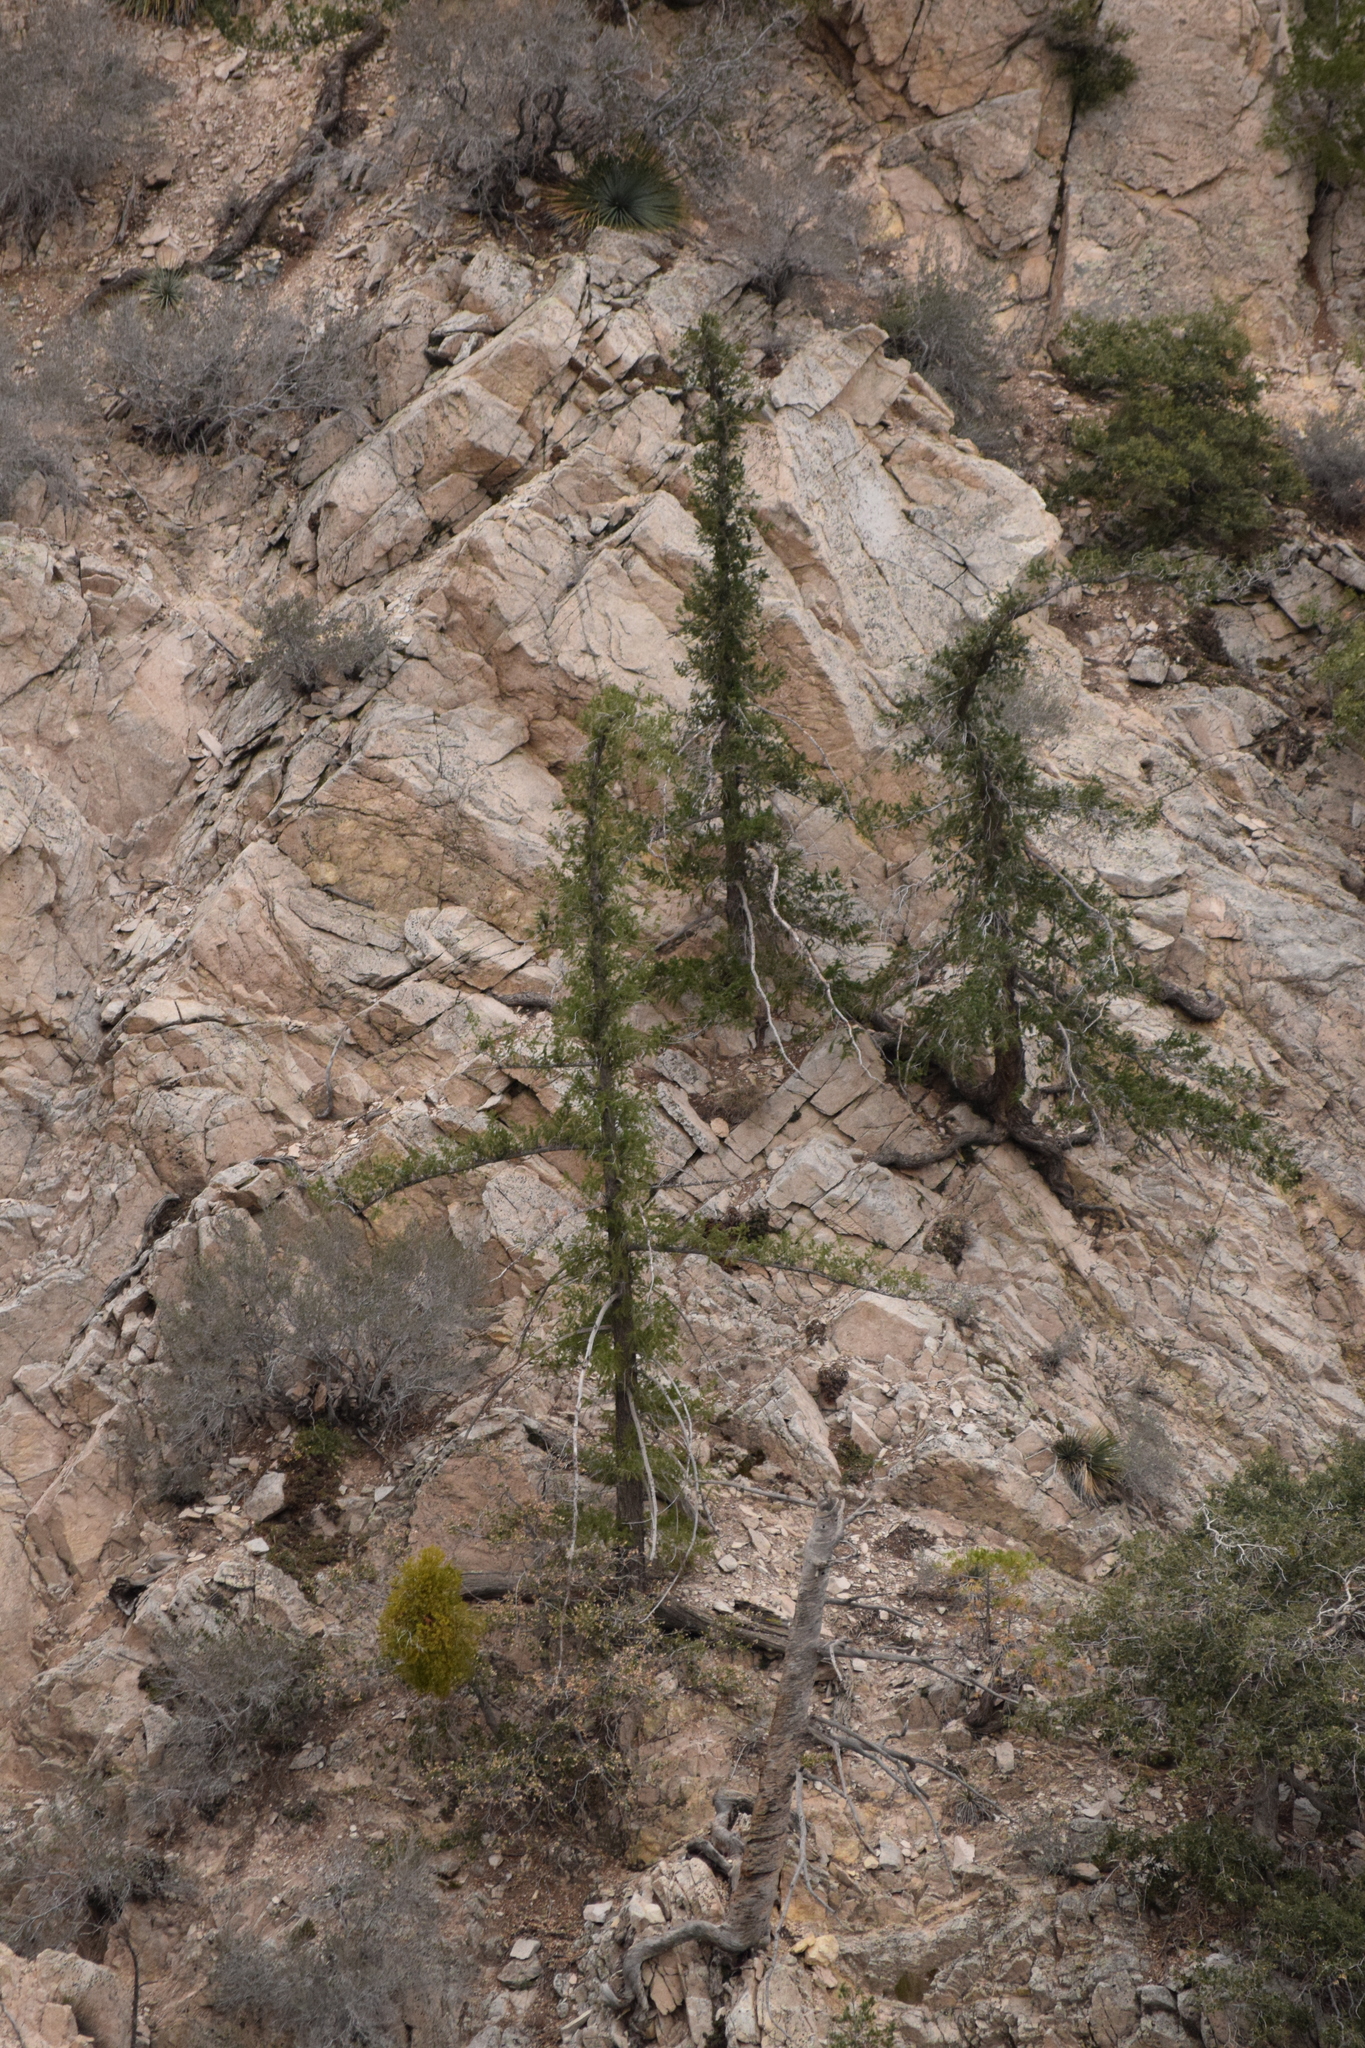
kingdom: Plantae
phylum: Tracheophyta
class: Pinopsida
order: Pinales
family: Pinaceae
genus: Pseudotsuga
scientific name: Pseudotsuga macrocarpa
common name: Big-cone douglas-fir
